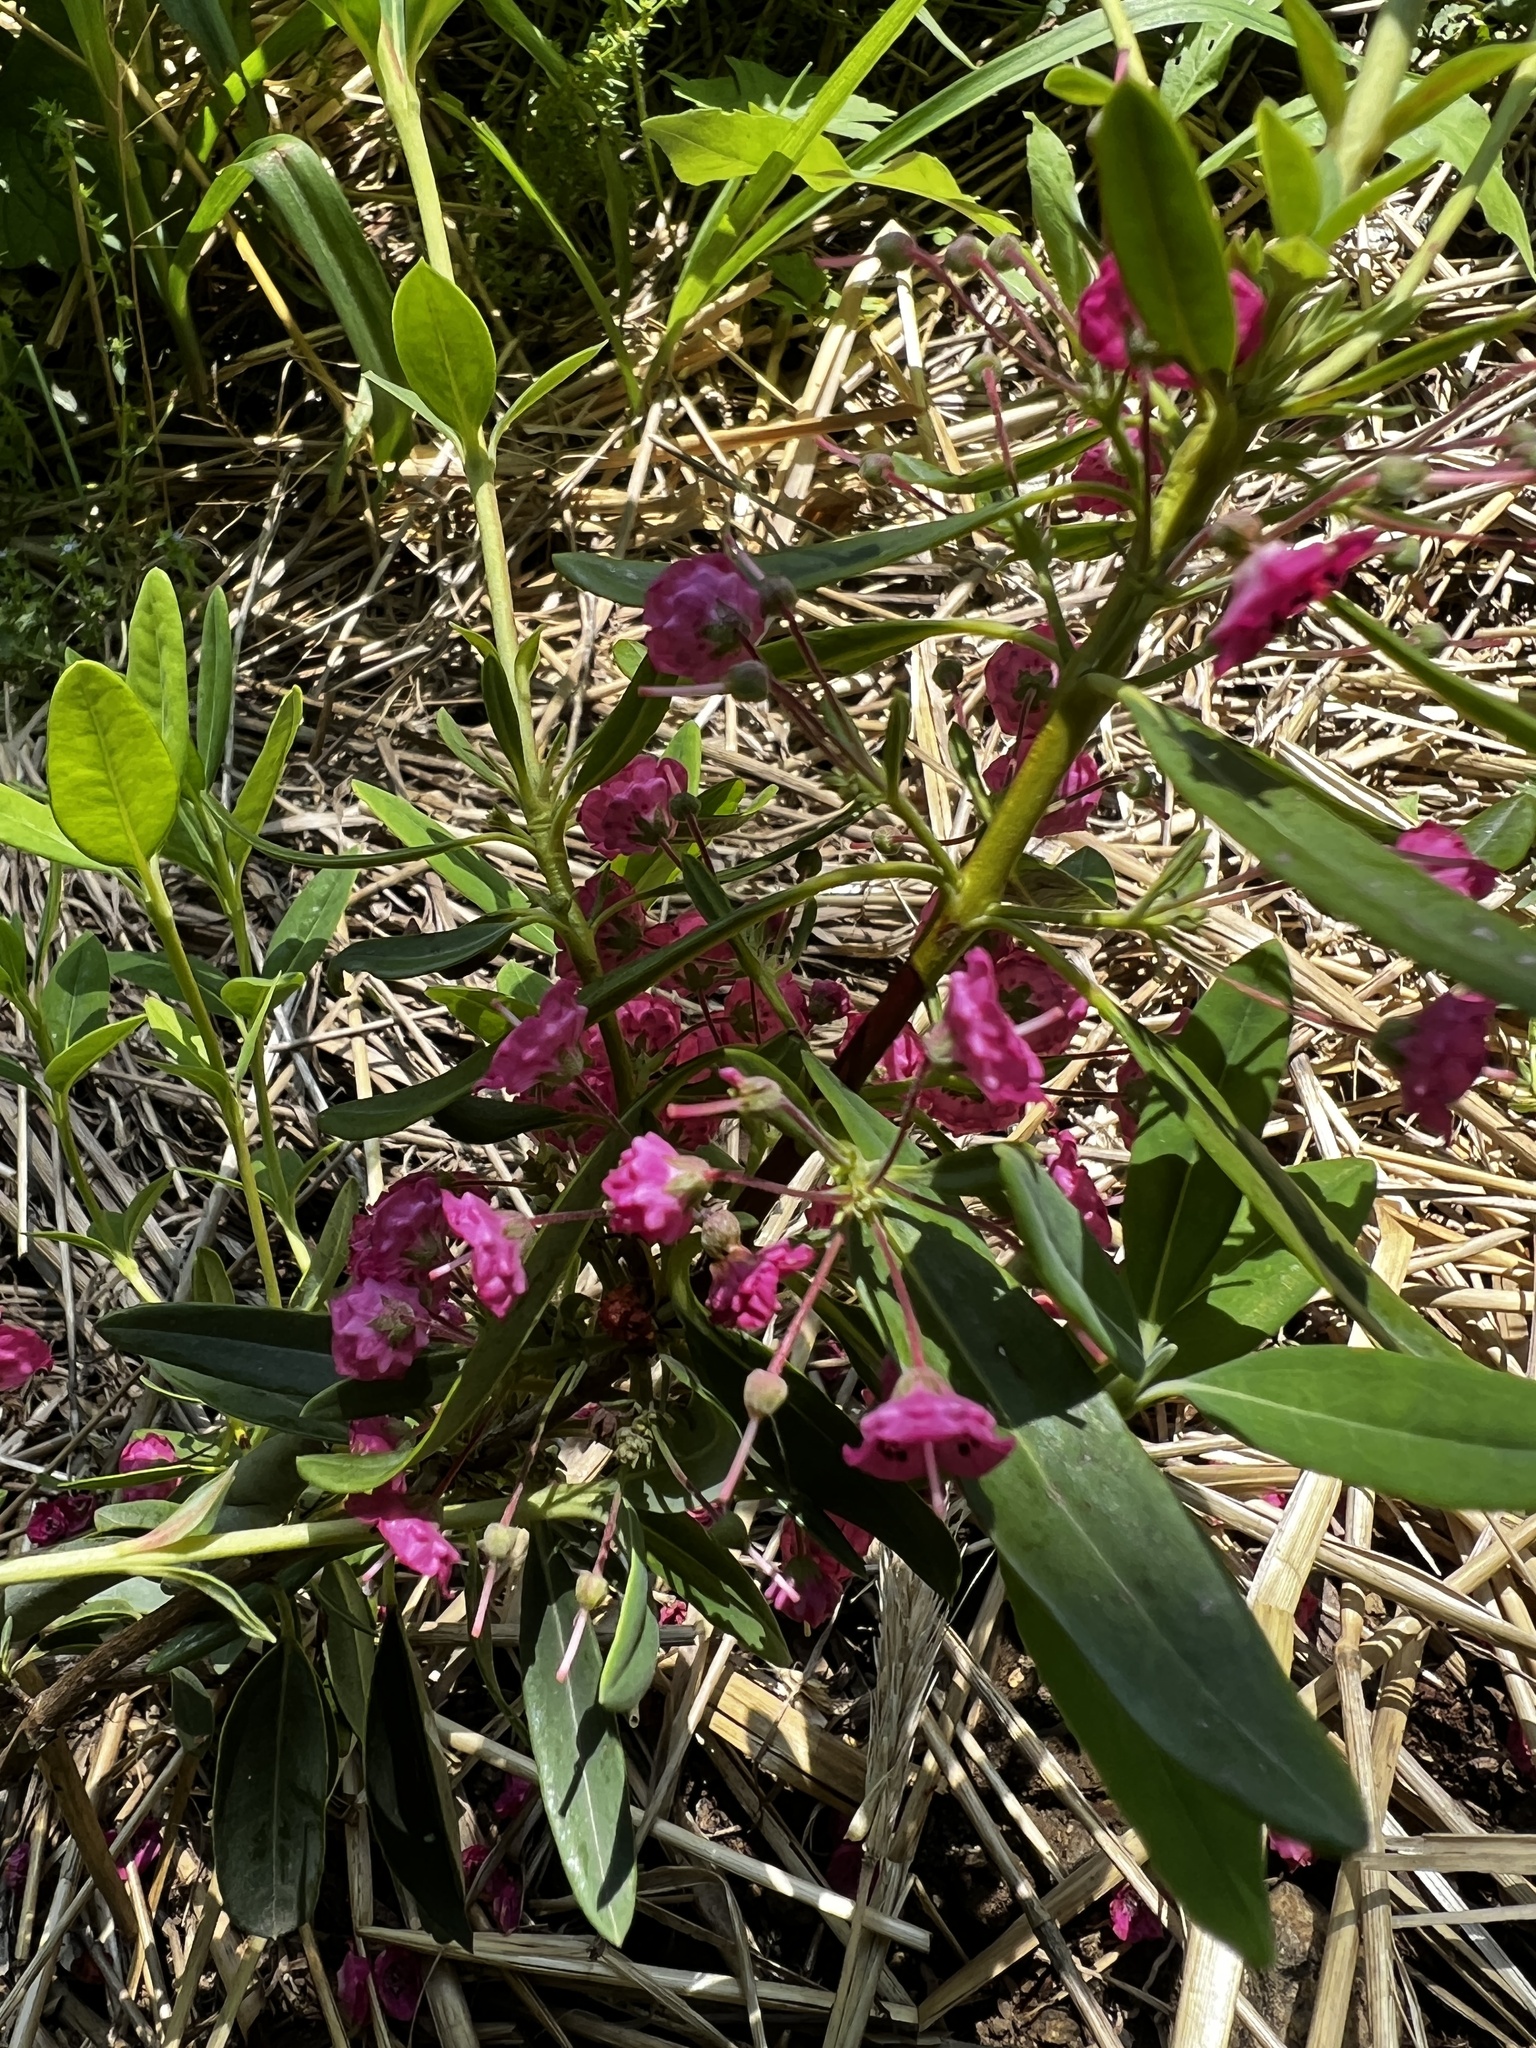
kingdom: Plantae
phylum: Tracheophyta
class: Magnoliopsida
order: Ericales
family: Ericaceae
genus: Kalmia
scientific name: Kalmia angustifolia
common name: Sheep-laurel
